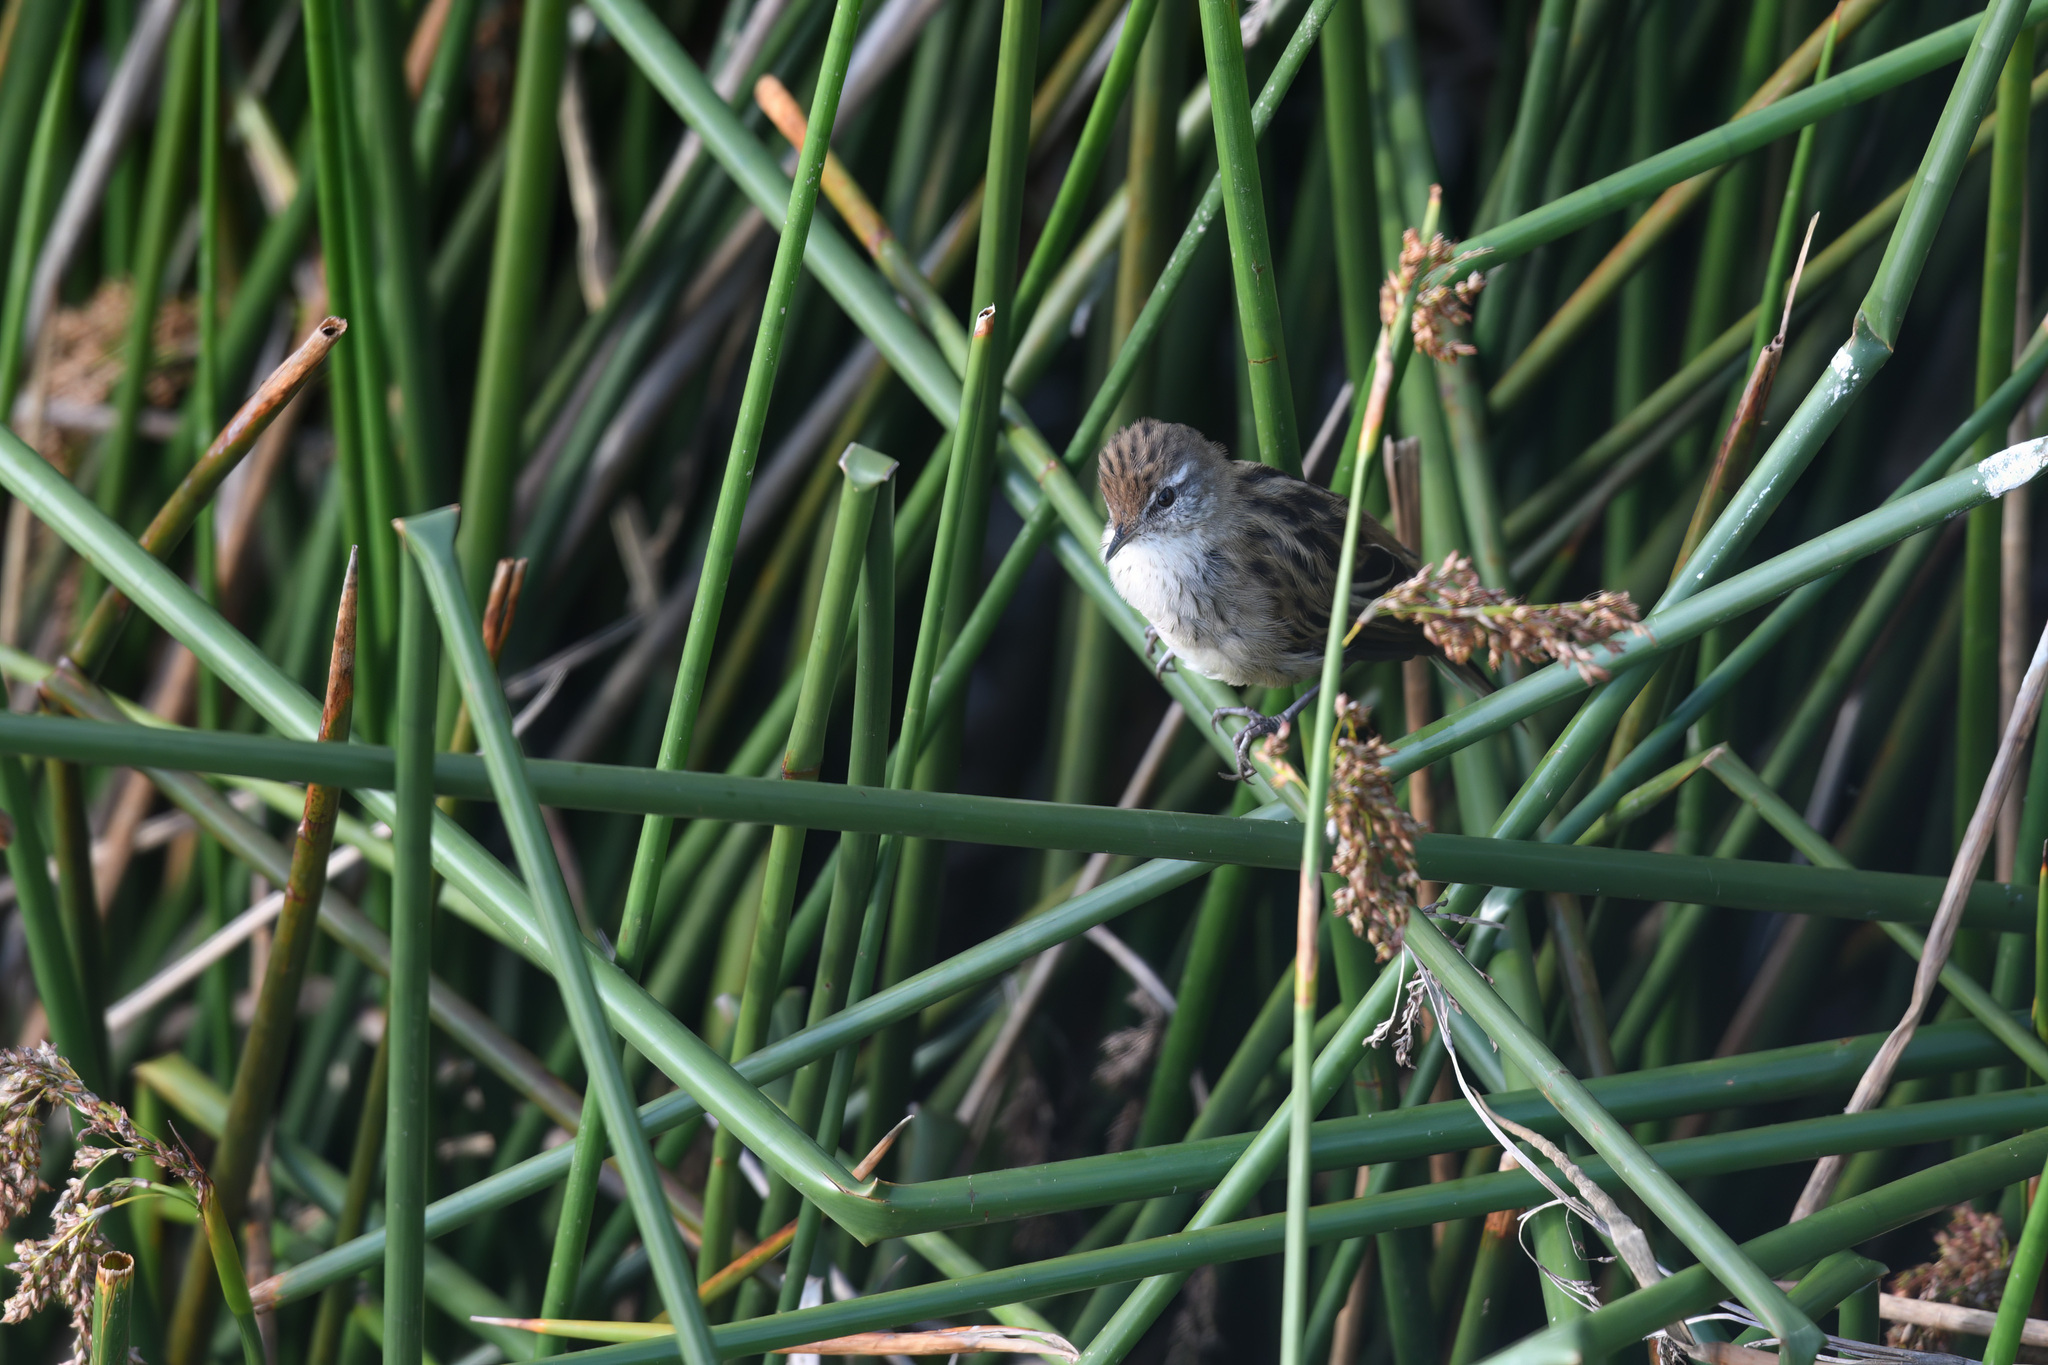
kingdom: Animalia
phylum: Chordata
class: Aves
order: Passeriformes
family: Locustellidae
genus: Megalurus
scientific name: Megalurus gramineus
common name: Little grassbird
